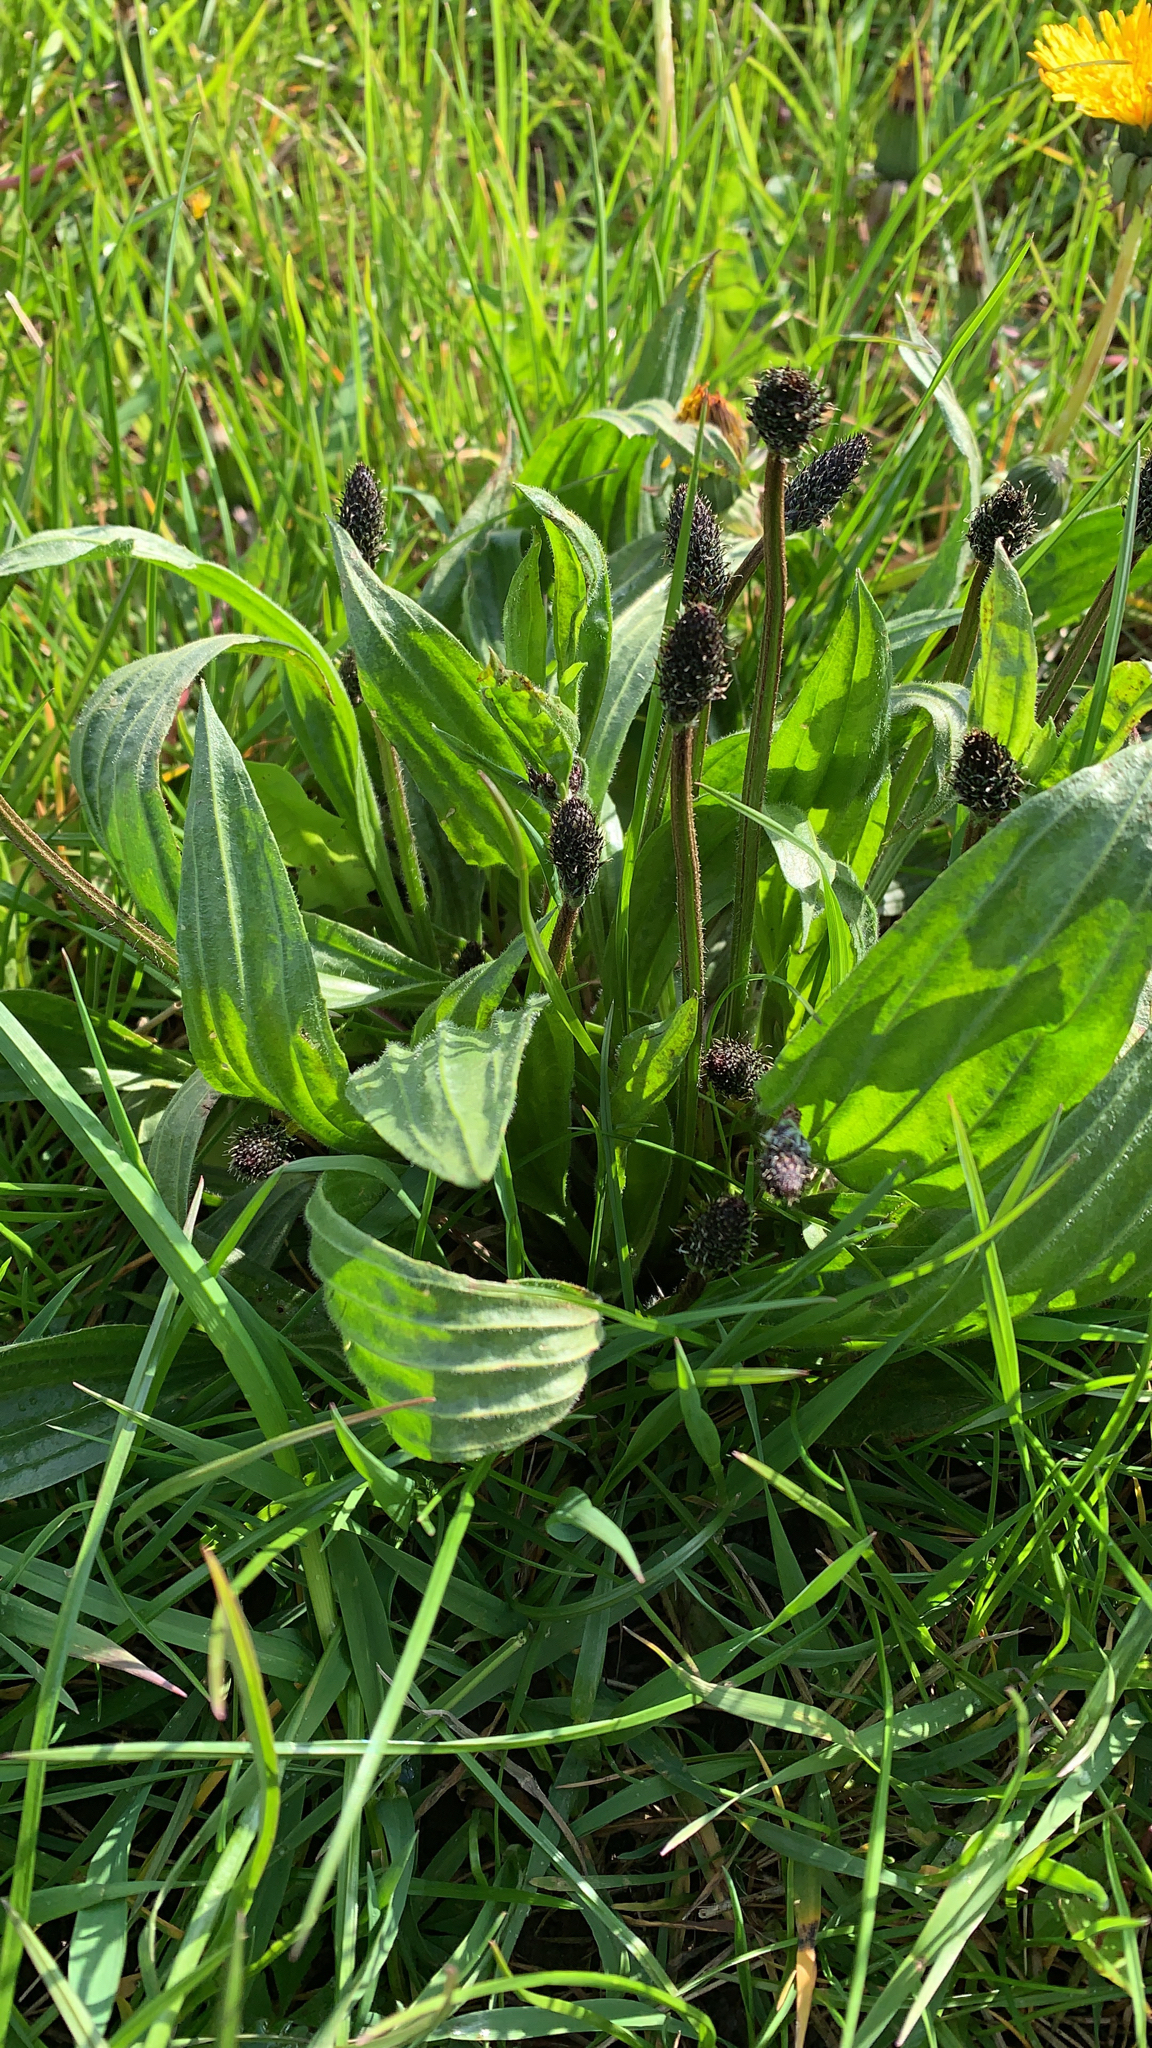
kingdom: Plantae
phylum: Tracheophyta
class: Magnoliopsida
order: Lamiales
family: Plantaginaceae
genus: Plantago
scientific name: Plantago lanceolata
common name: Ribwort plantain
